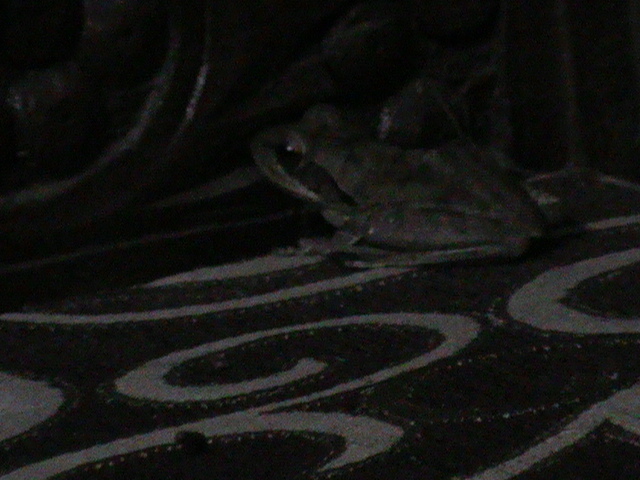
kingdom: Animalia
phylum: Chordata
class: Amphibia
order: Anura
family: Rhacophoridae
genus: Polypedates
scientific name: Polypedates maculatus
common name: Himalayan tree frog
